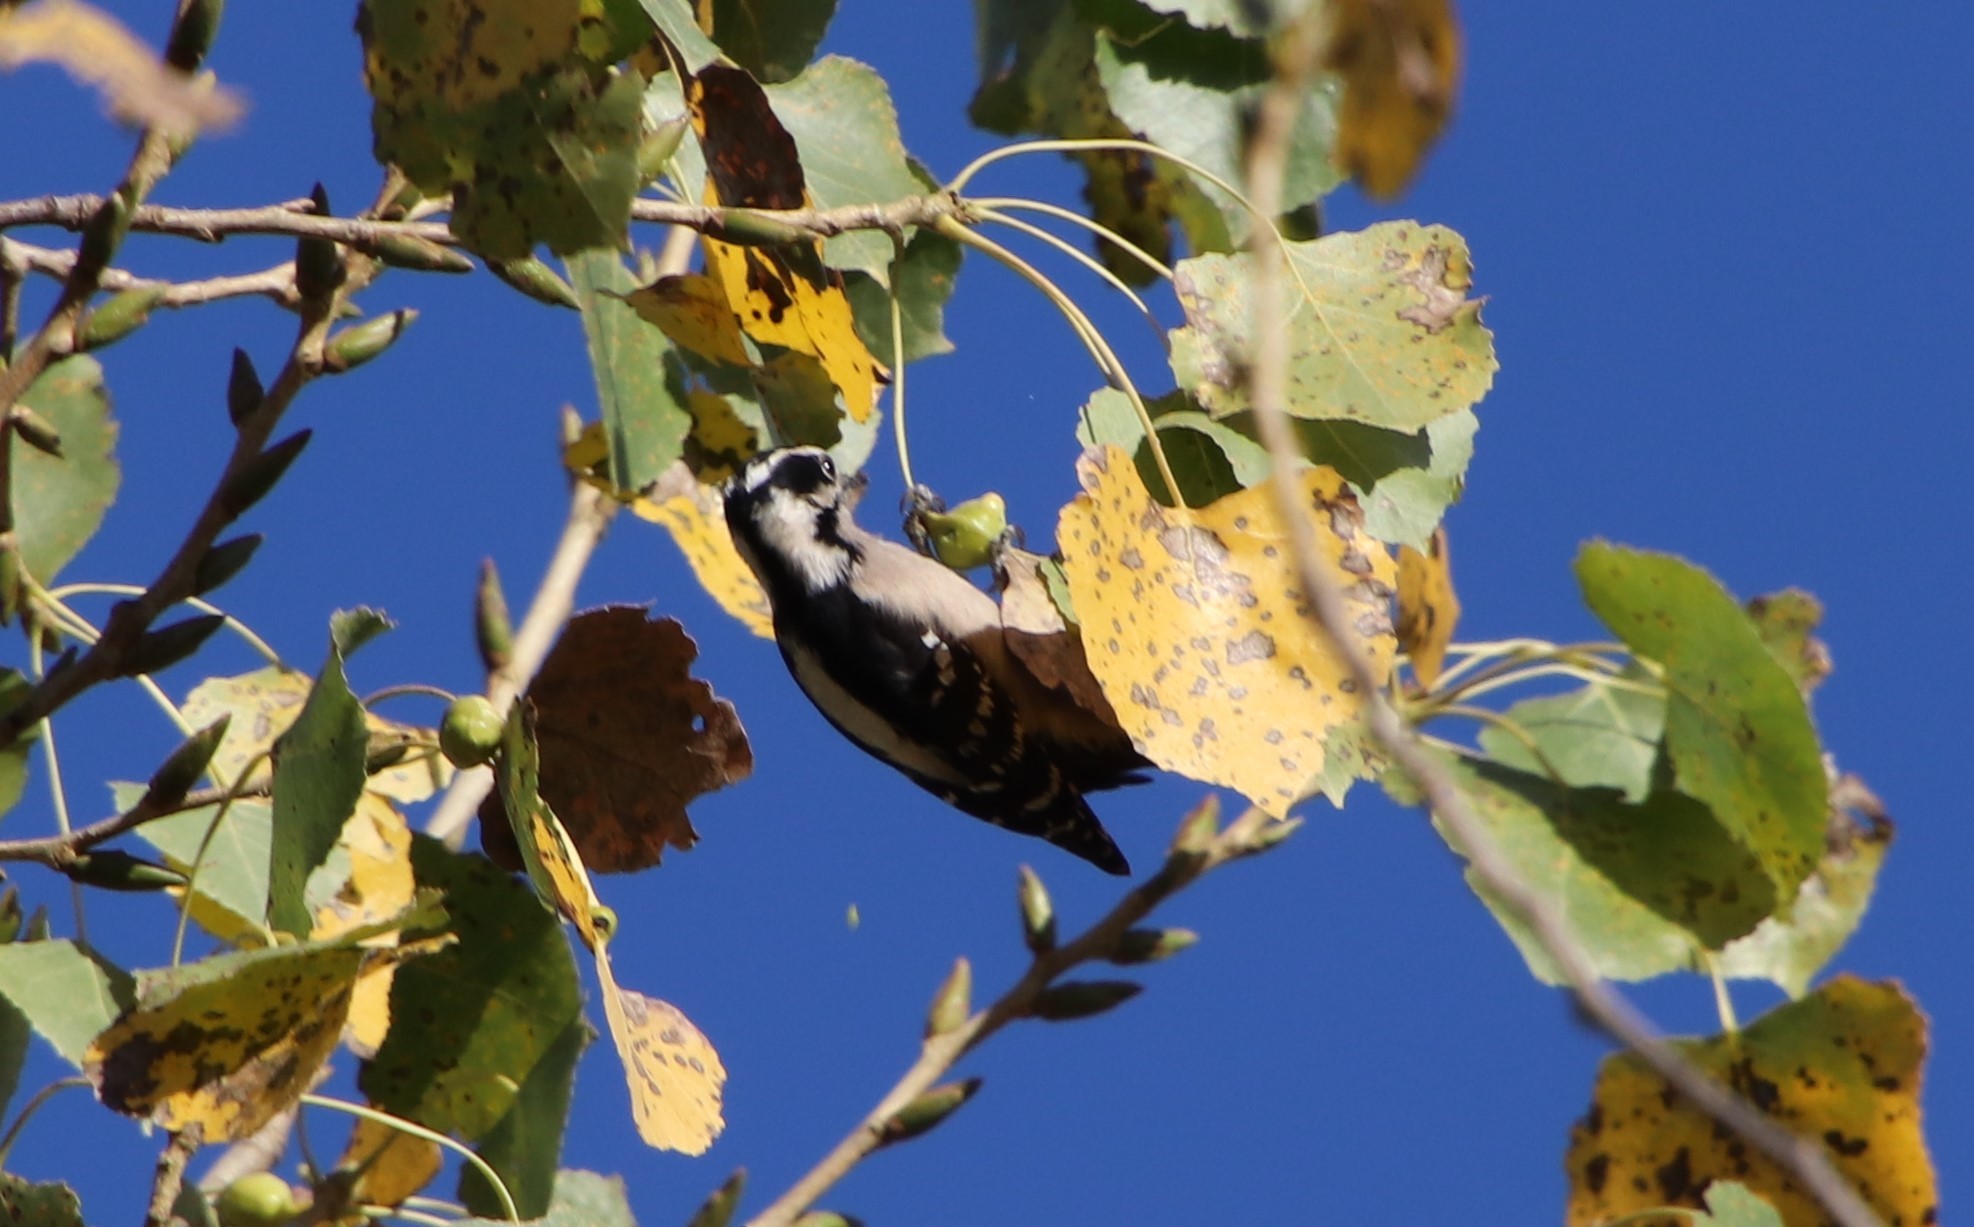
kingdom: Animalia
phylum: Chordata
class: Aves
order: Piciformes
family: Picidae
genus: Dryobates
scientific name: Dryobates pubescens
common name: Downy woodpecker
